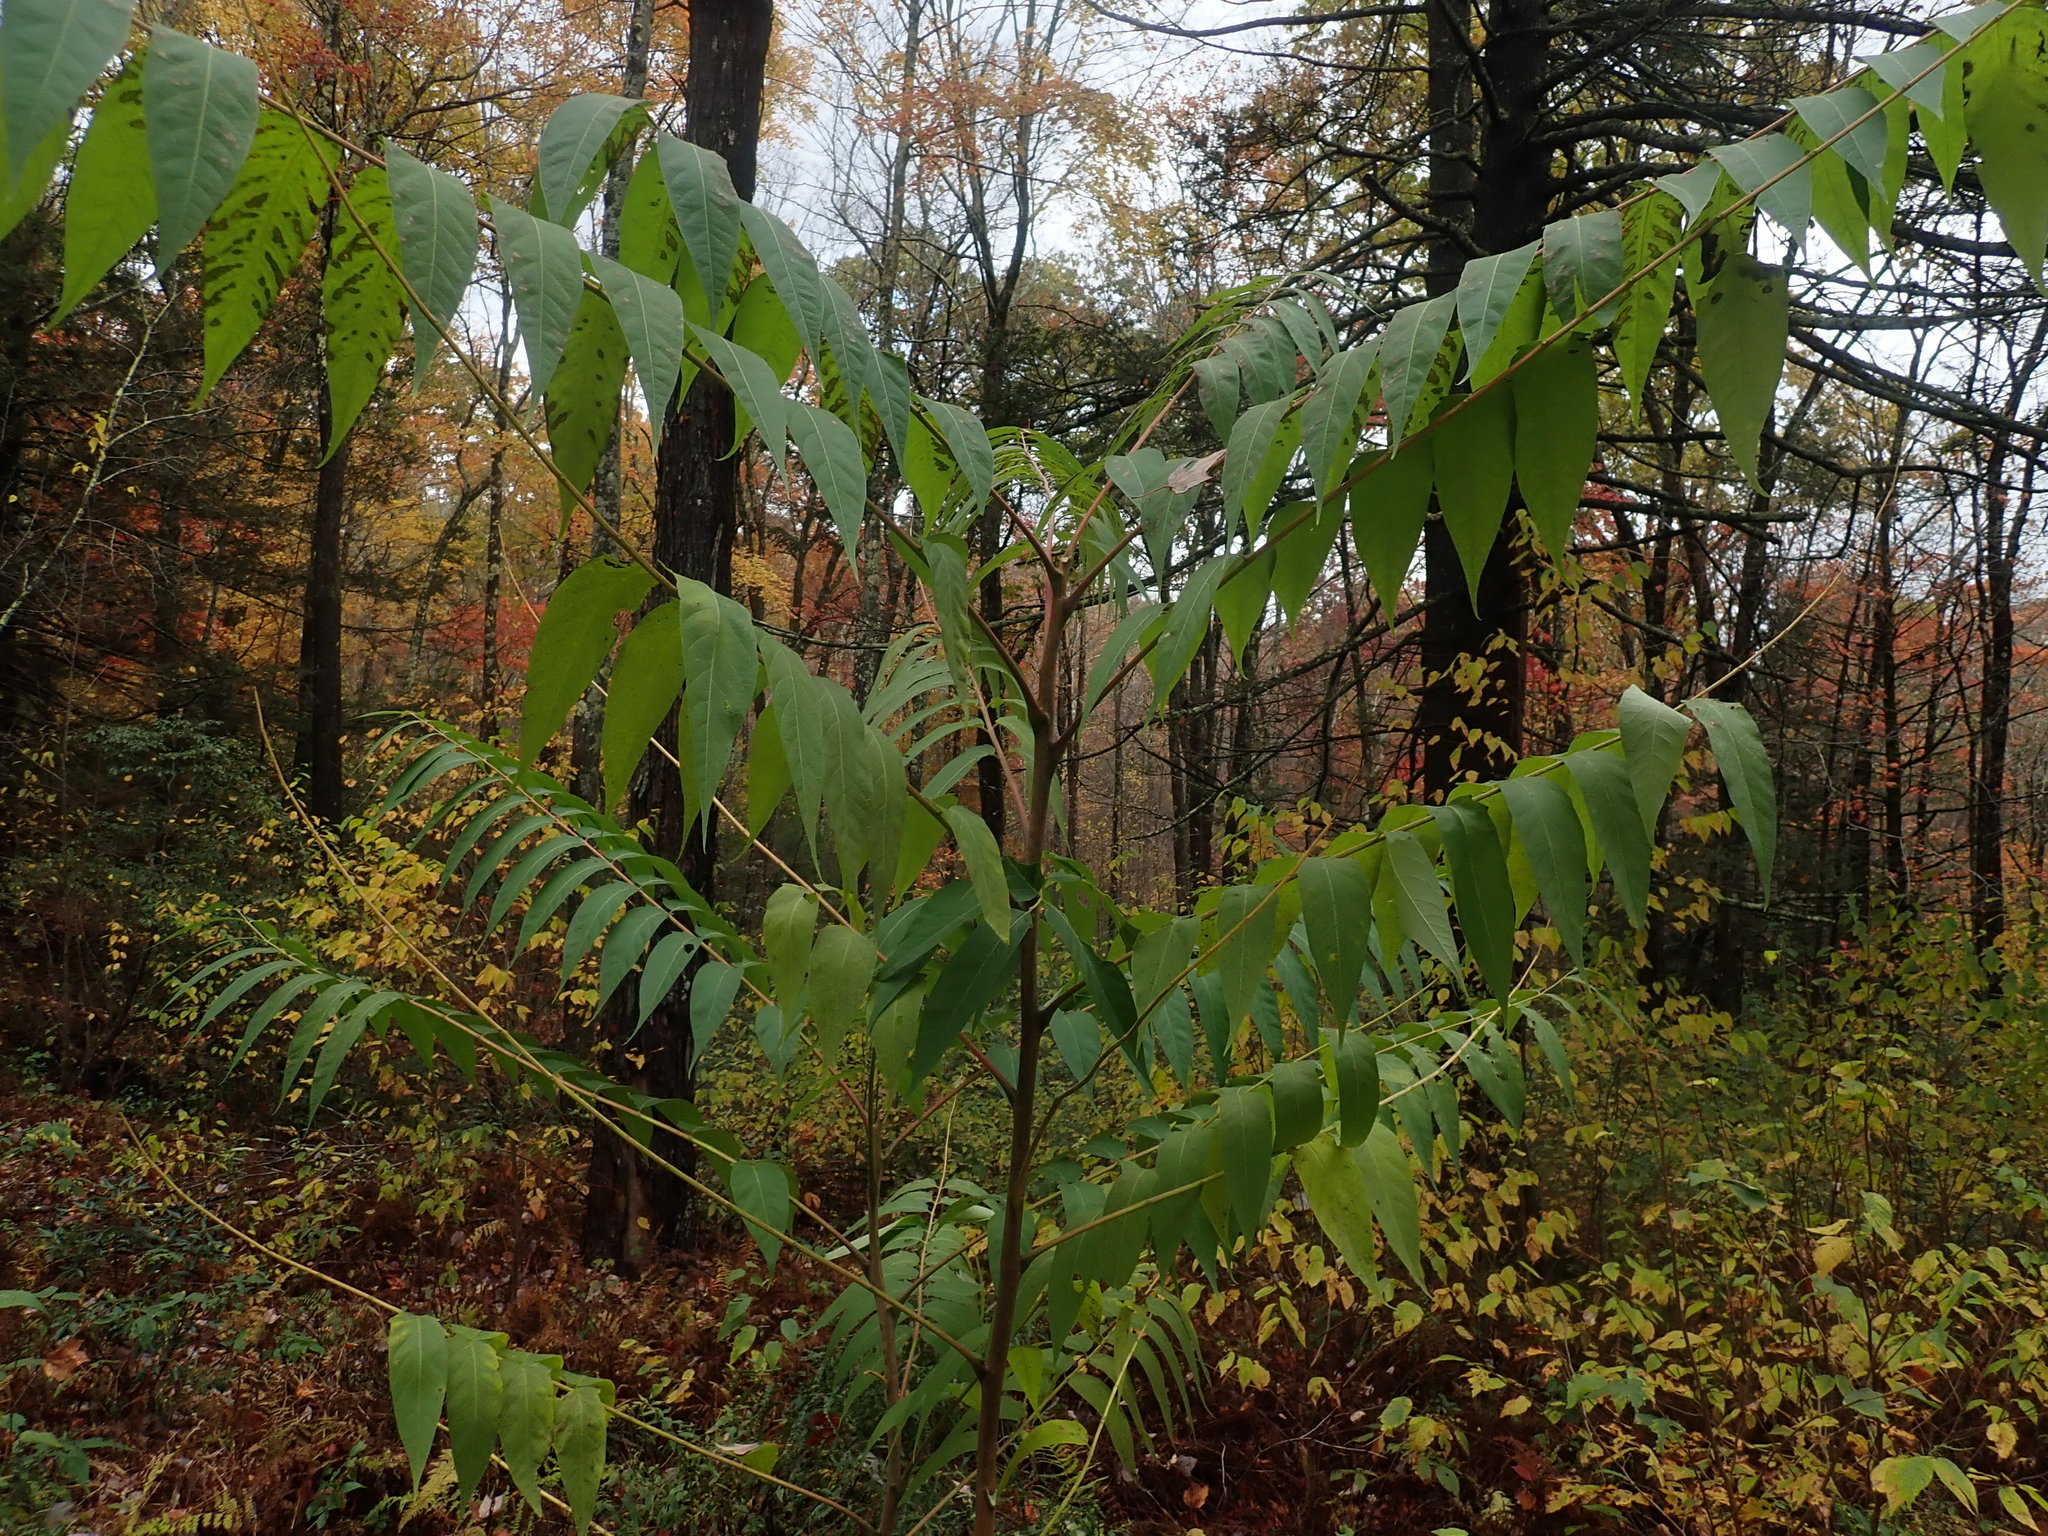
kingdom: Plantae
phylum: Tracheophyta
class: Magnoliopsida
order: Sapindales
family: Simaroubaceae
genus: Ailanthus
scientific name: Ailanthus altissima
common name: Tree-of-heaven
